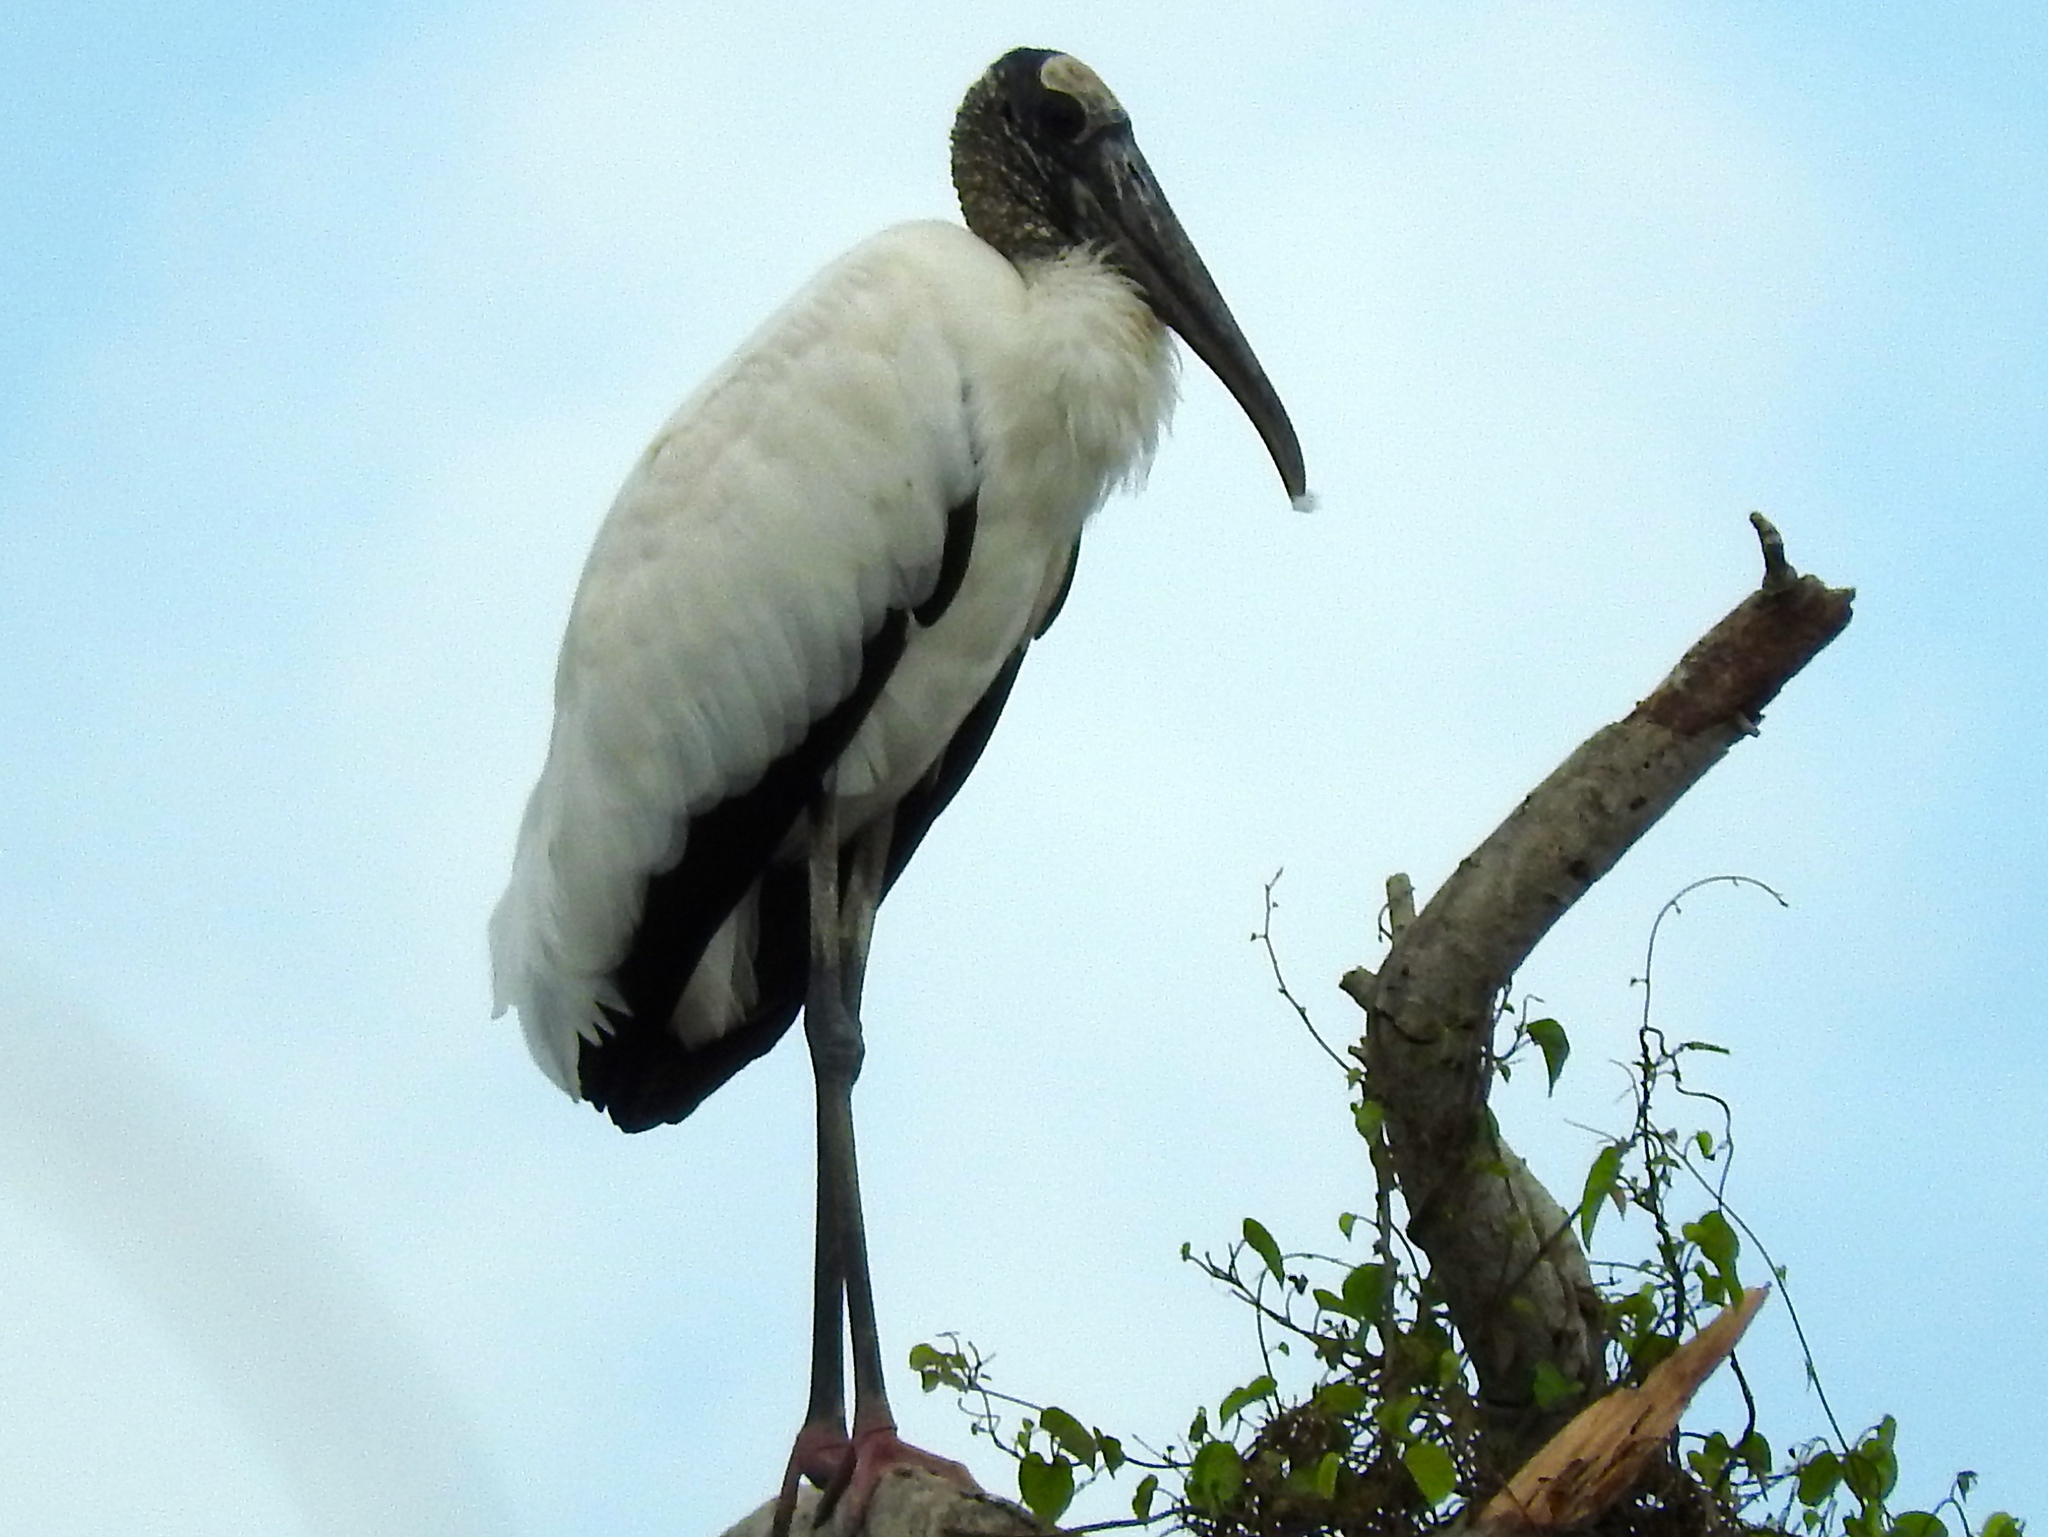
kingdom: Animalia
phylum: Chordata
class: Aves
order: Ciconiiformes
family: Ciconiidae
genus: Mycteria
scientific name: Mycteria americana
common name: Wood stork
